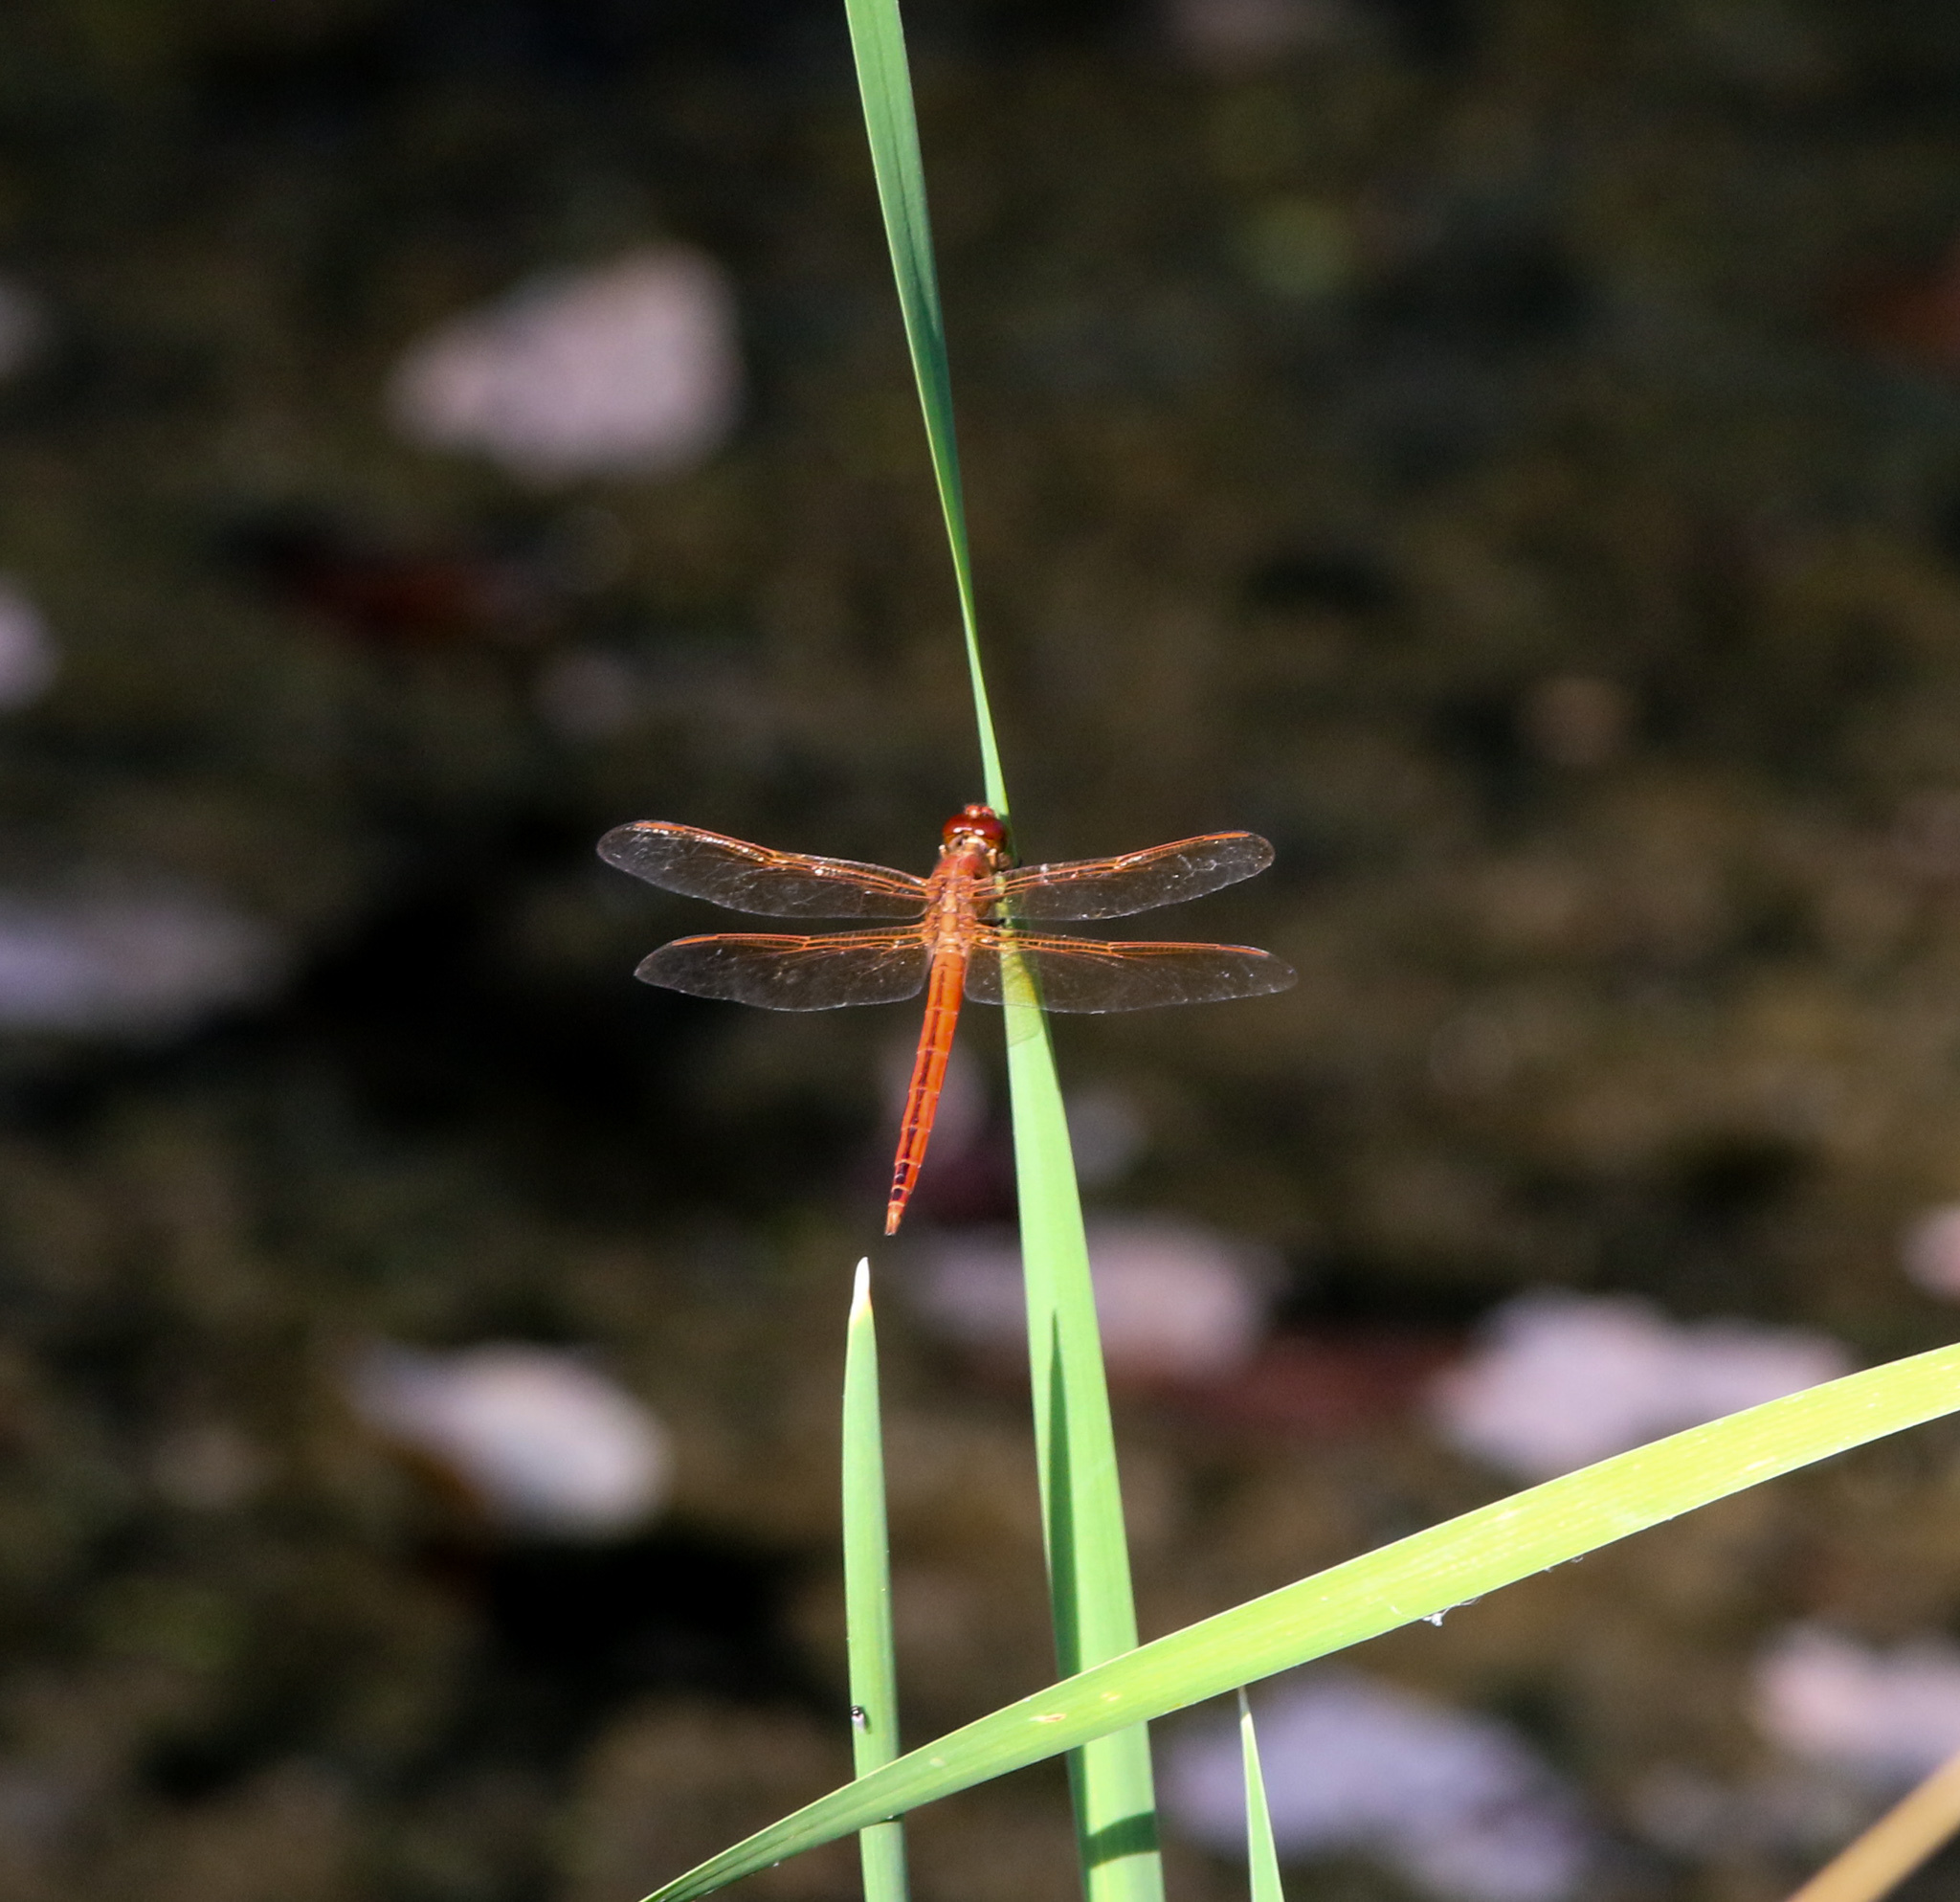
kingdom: Animalia
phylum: Arthropoda
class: Insecta
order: Odonata
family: Libellulidae
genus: Libellula
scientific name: Libellula needhami
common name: Needham's skimmer
